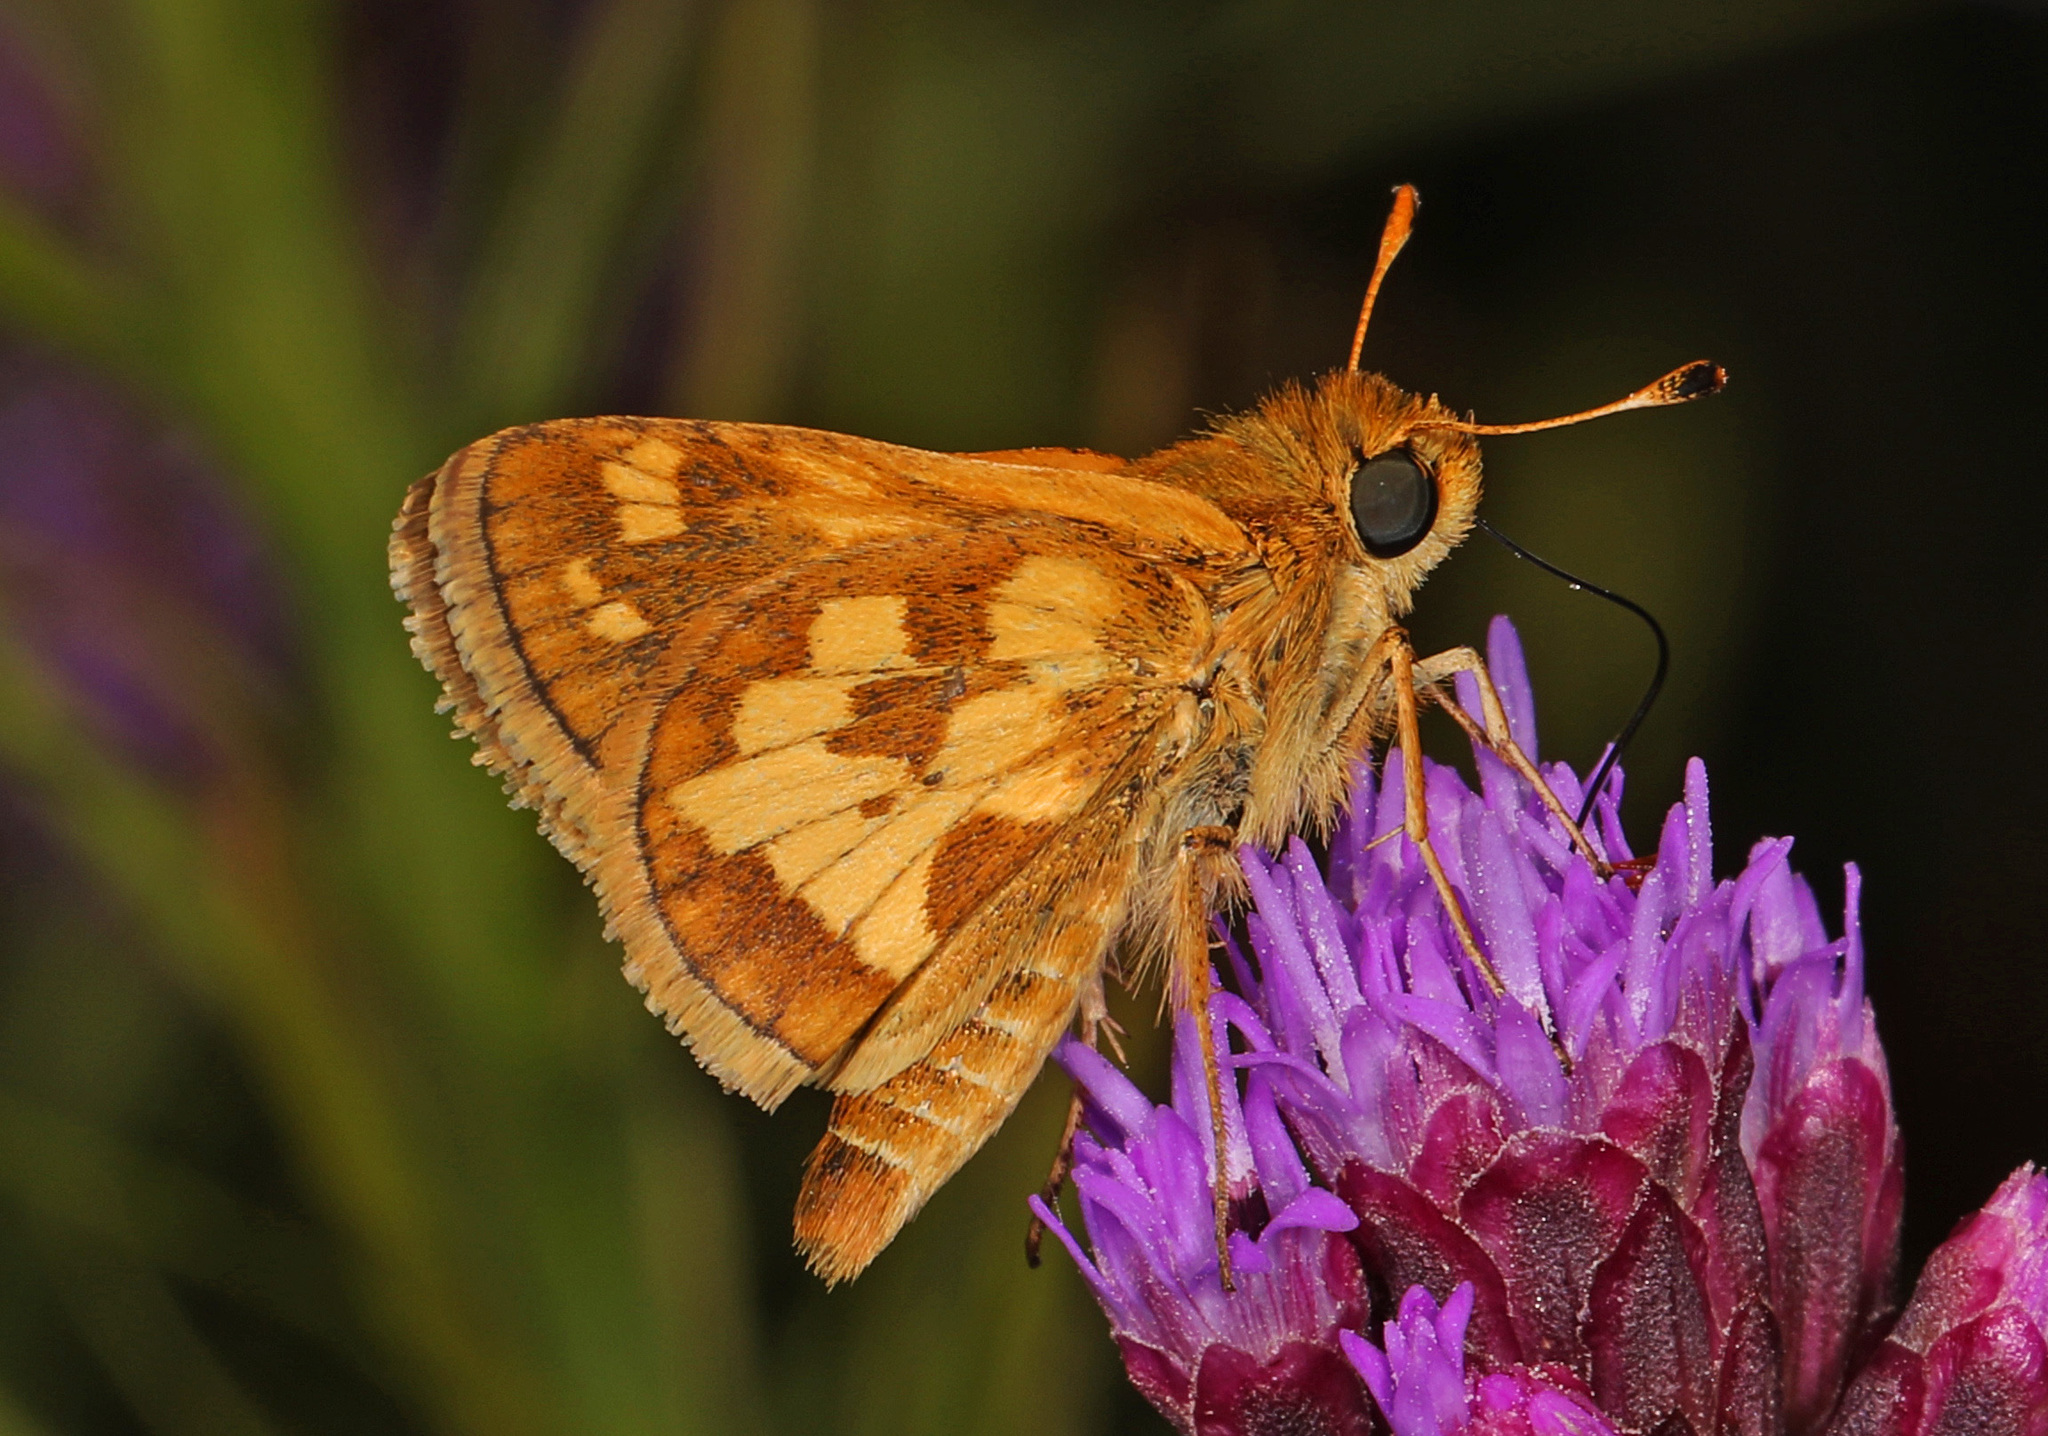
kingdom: Animalia
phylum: Arthropoda
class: Insecta
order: Lepidoptera
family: Hesperiidae
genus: Polites
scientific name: Polites coras
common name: Peck's skipper
